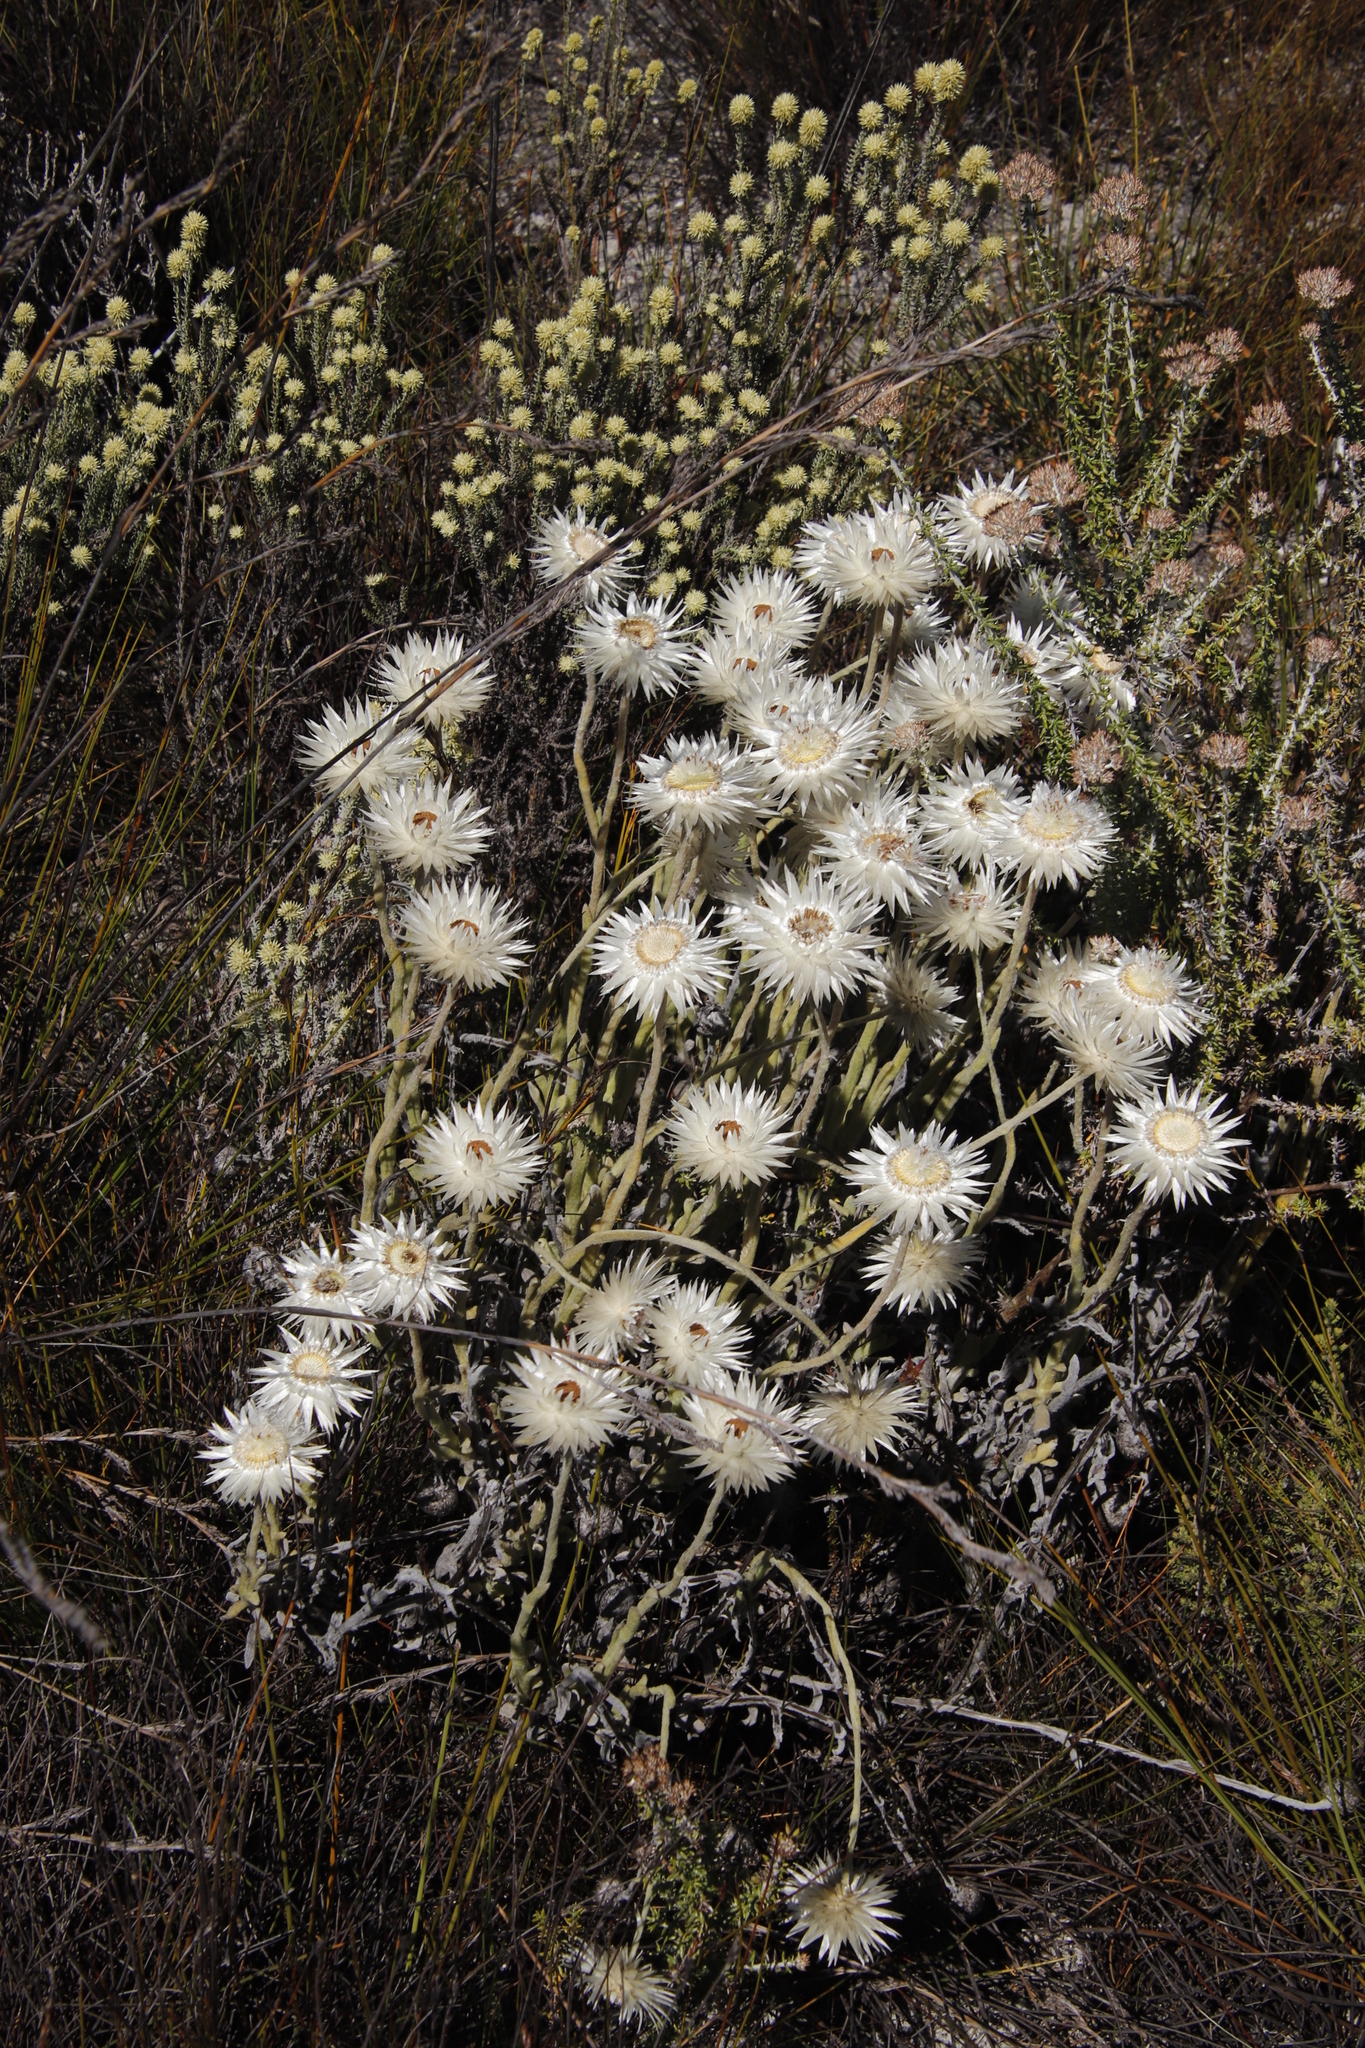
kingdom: Plantae
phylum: Tracheophyta
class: Magnoliopsida
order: Asterales
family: Asteraceae
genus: Syncarpha
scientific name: Syncarpha vestita
